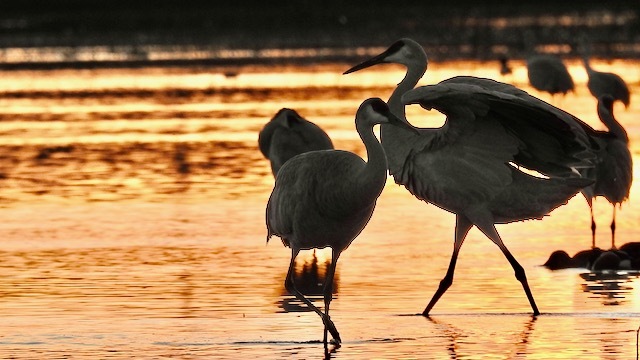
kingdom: Animalia
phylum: Chordata
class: Aves
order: Gruiformes
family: Gruidae
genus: Grus
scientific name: Grus canadensis
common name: Sandhill crane
